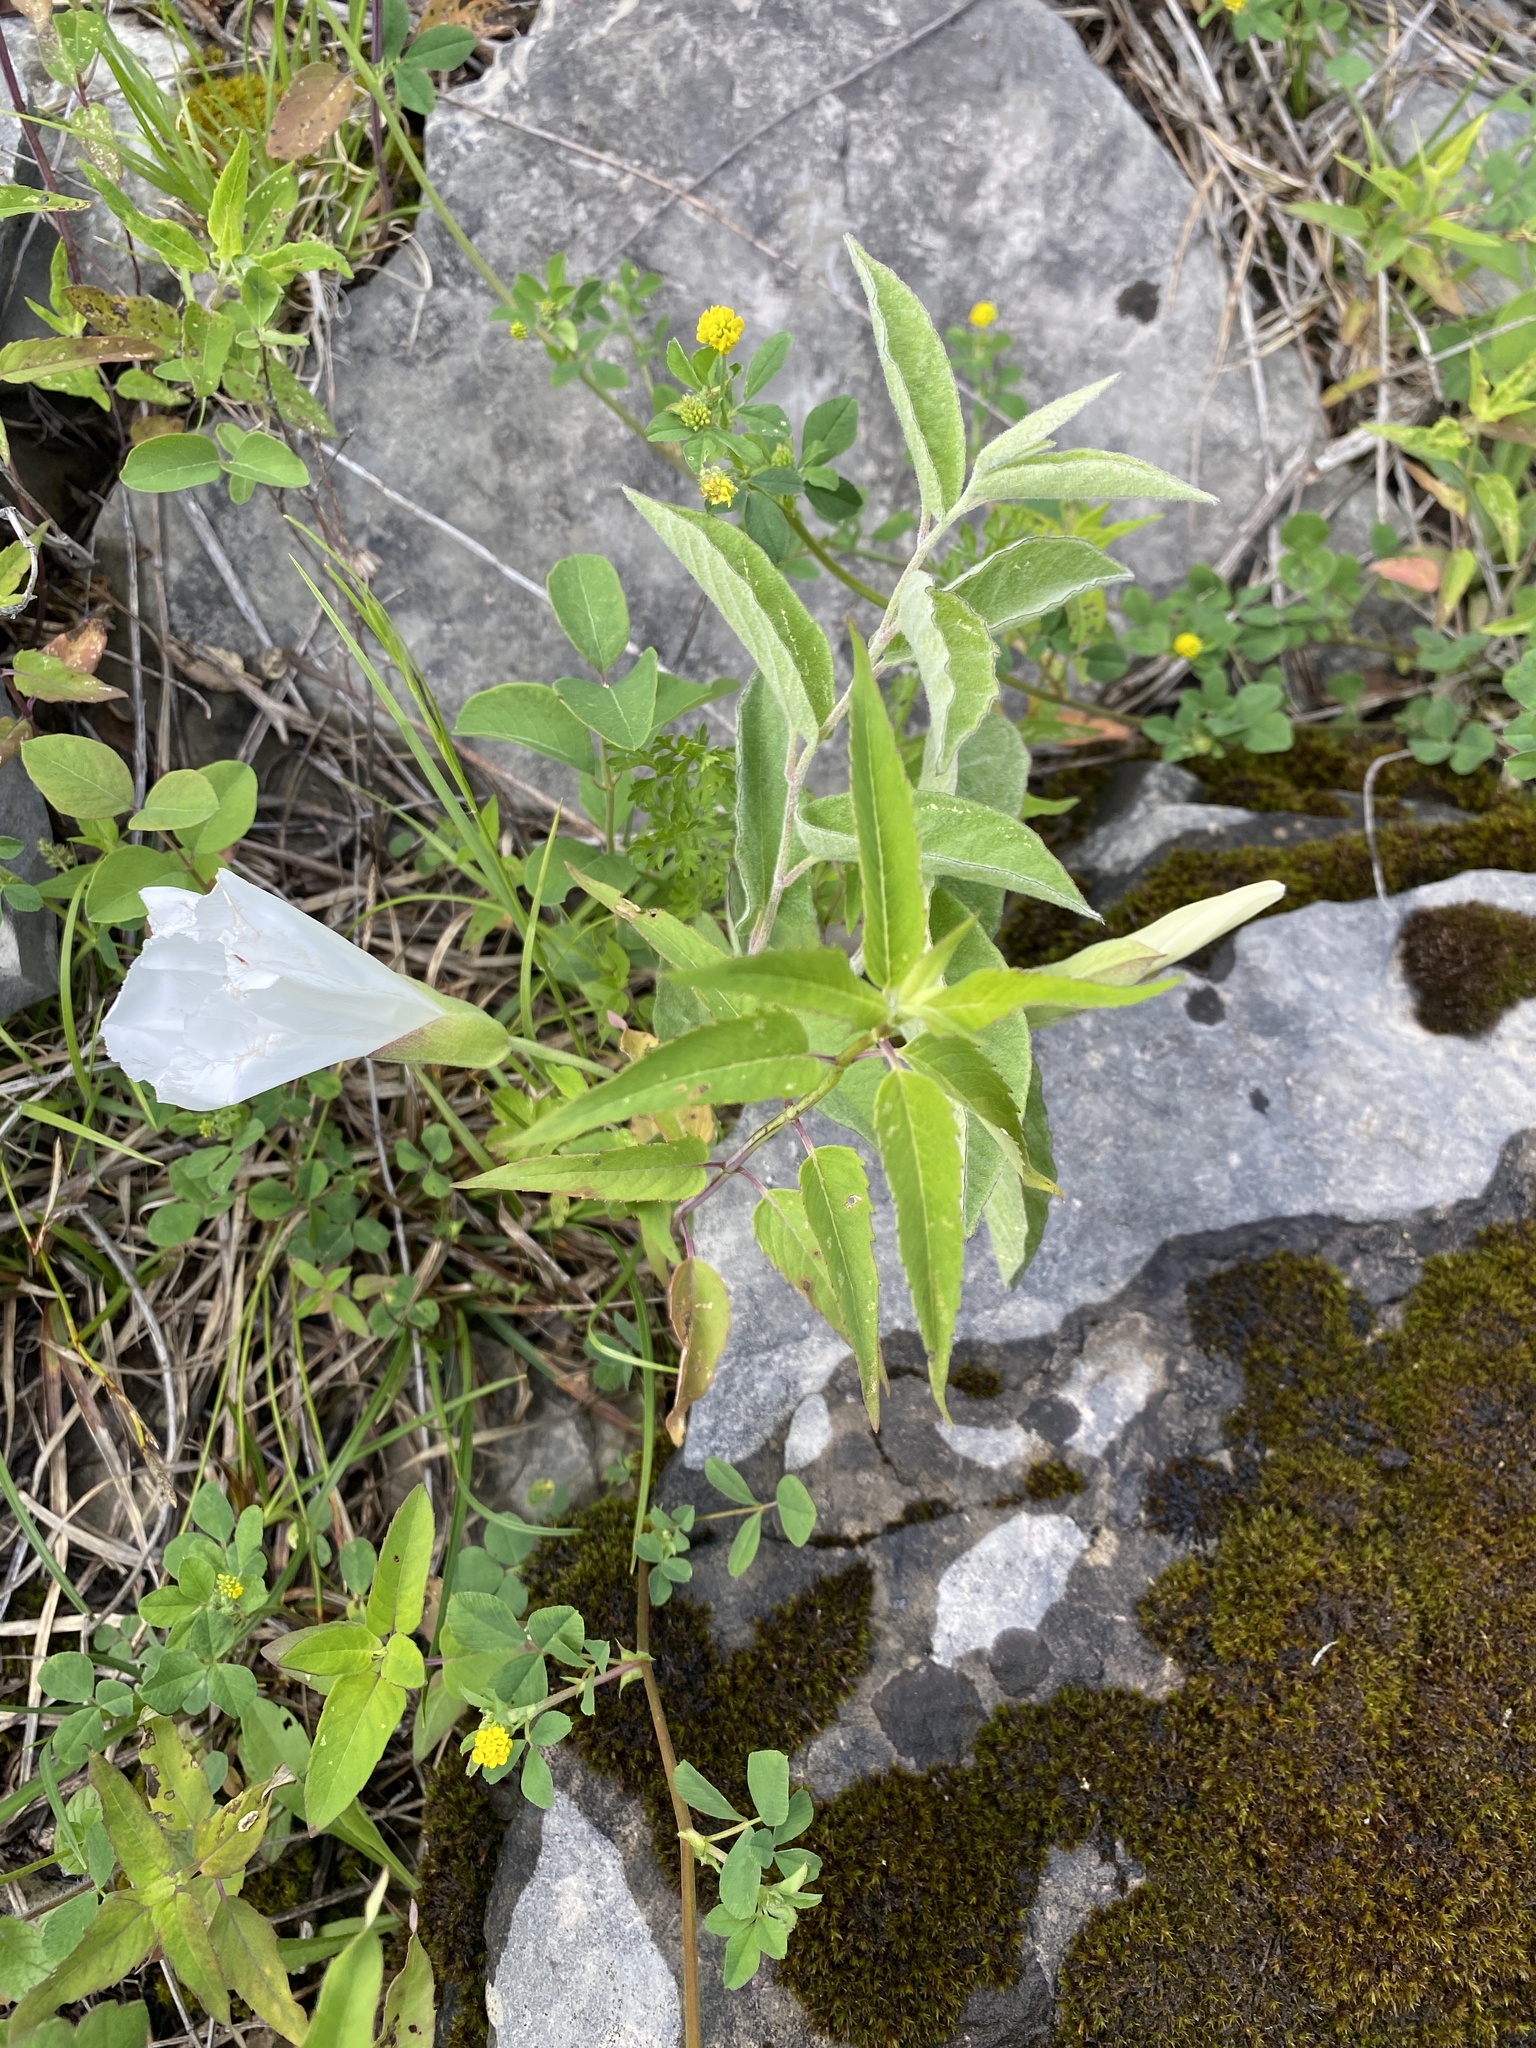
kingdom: Plantae
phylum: Tracheophyta
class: Magnoliopsida
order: Solanales
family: Convolvulaceae
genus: Calystegia
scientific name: Calystegia spithamaea
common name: Dwarf bindweed
